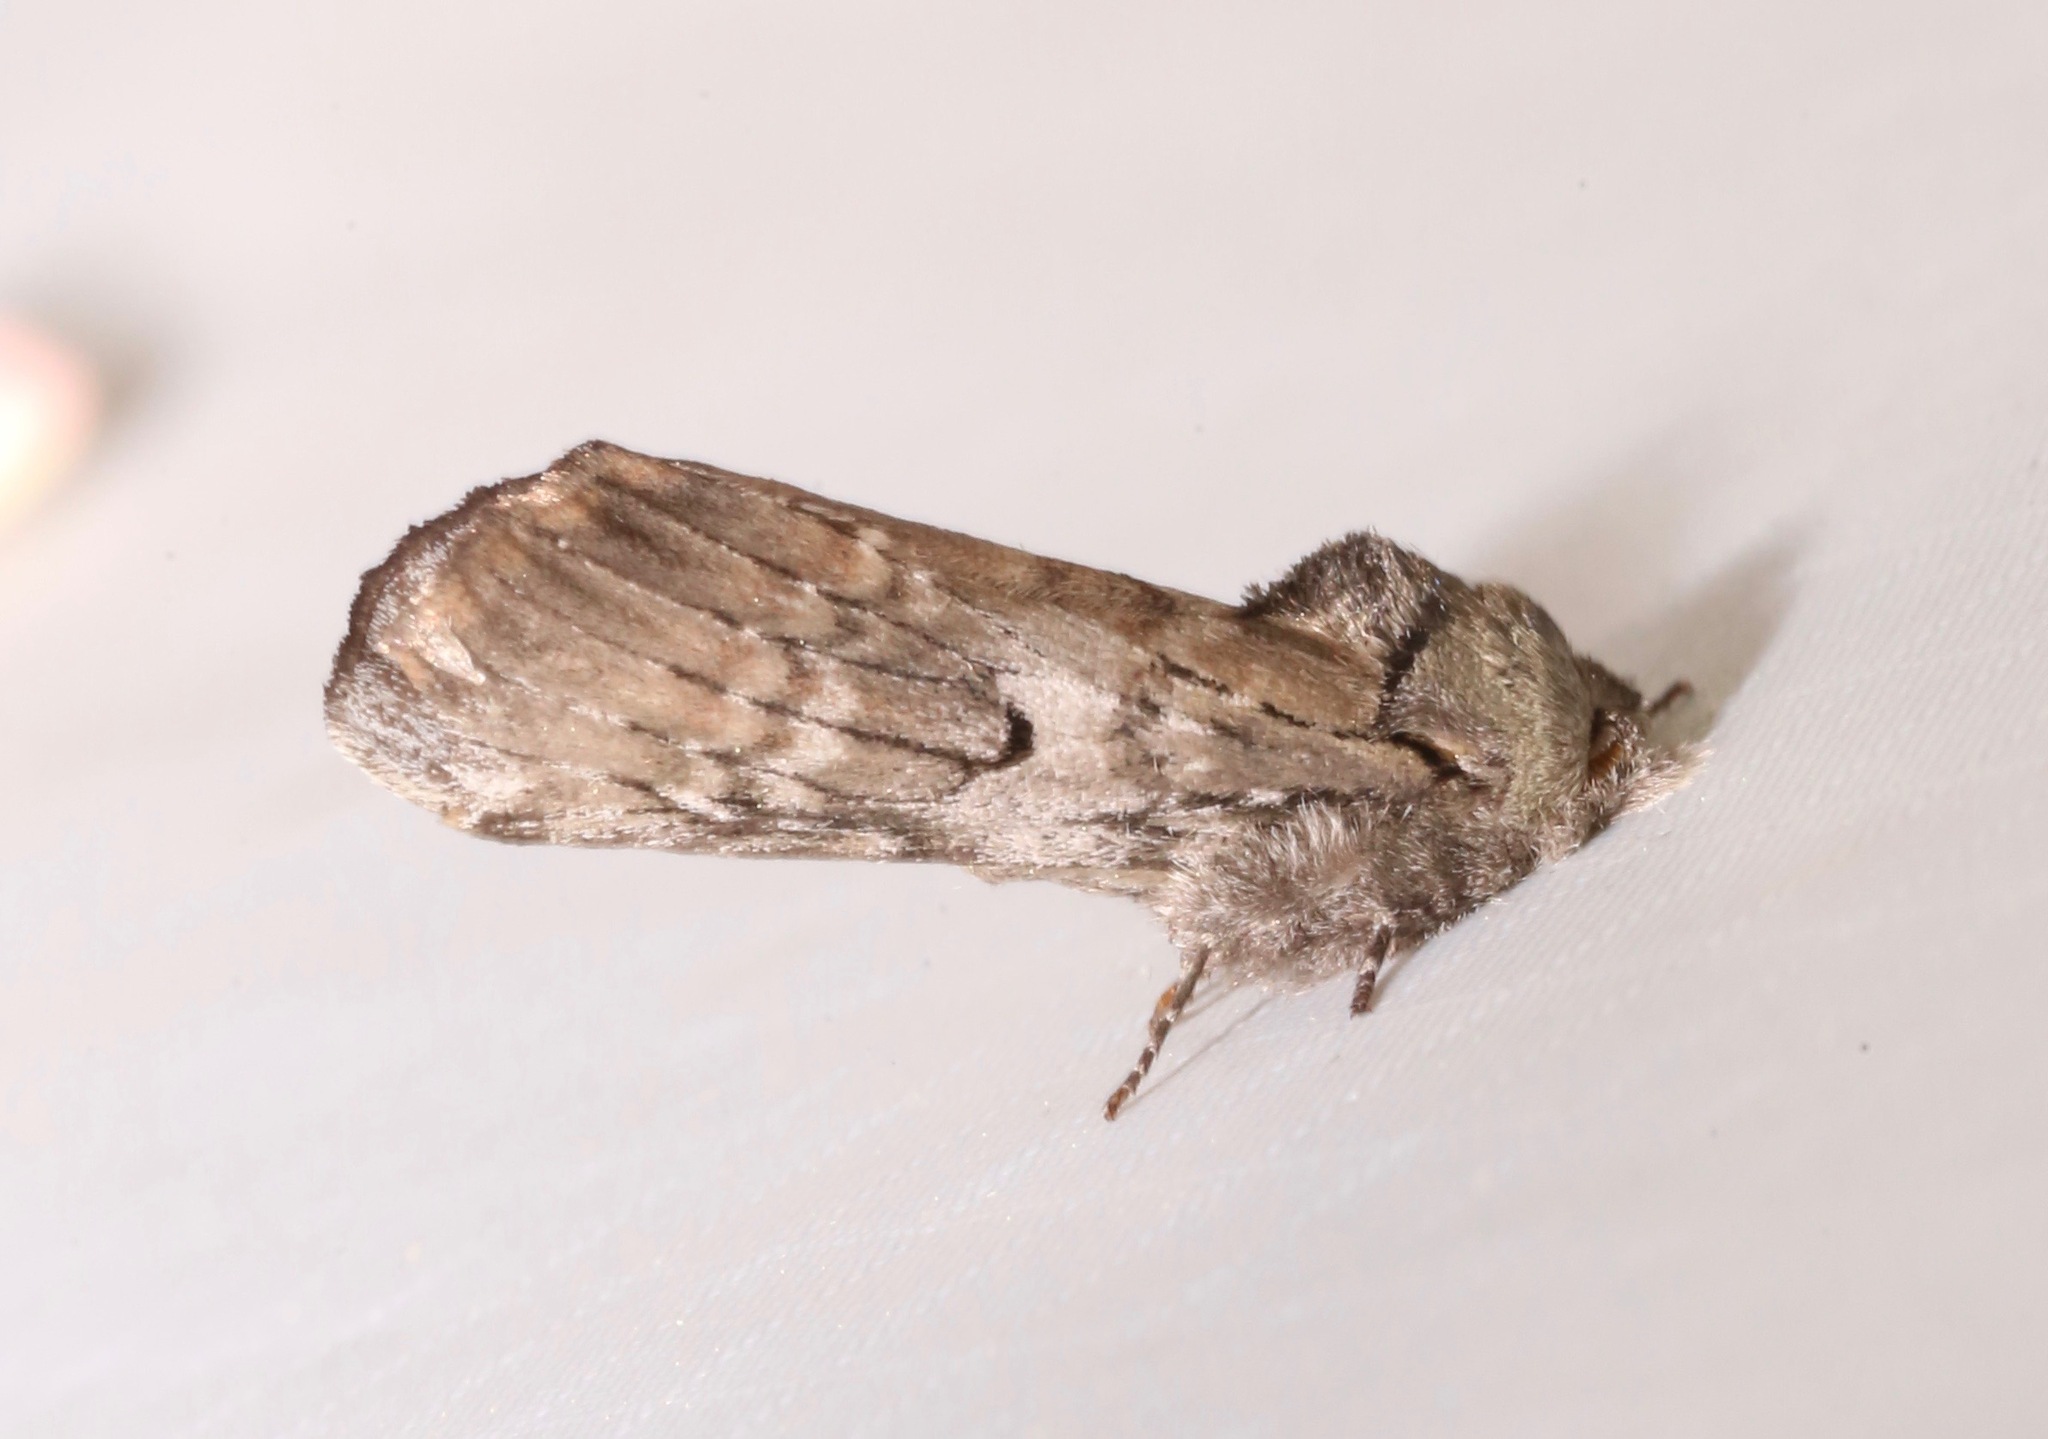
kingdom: Animalia
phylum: Arthropoda
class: Insecta
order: Lepidoptera
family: Notodontidae
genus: Schizura
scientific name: Schizura
